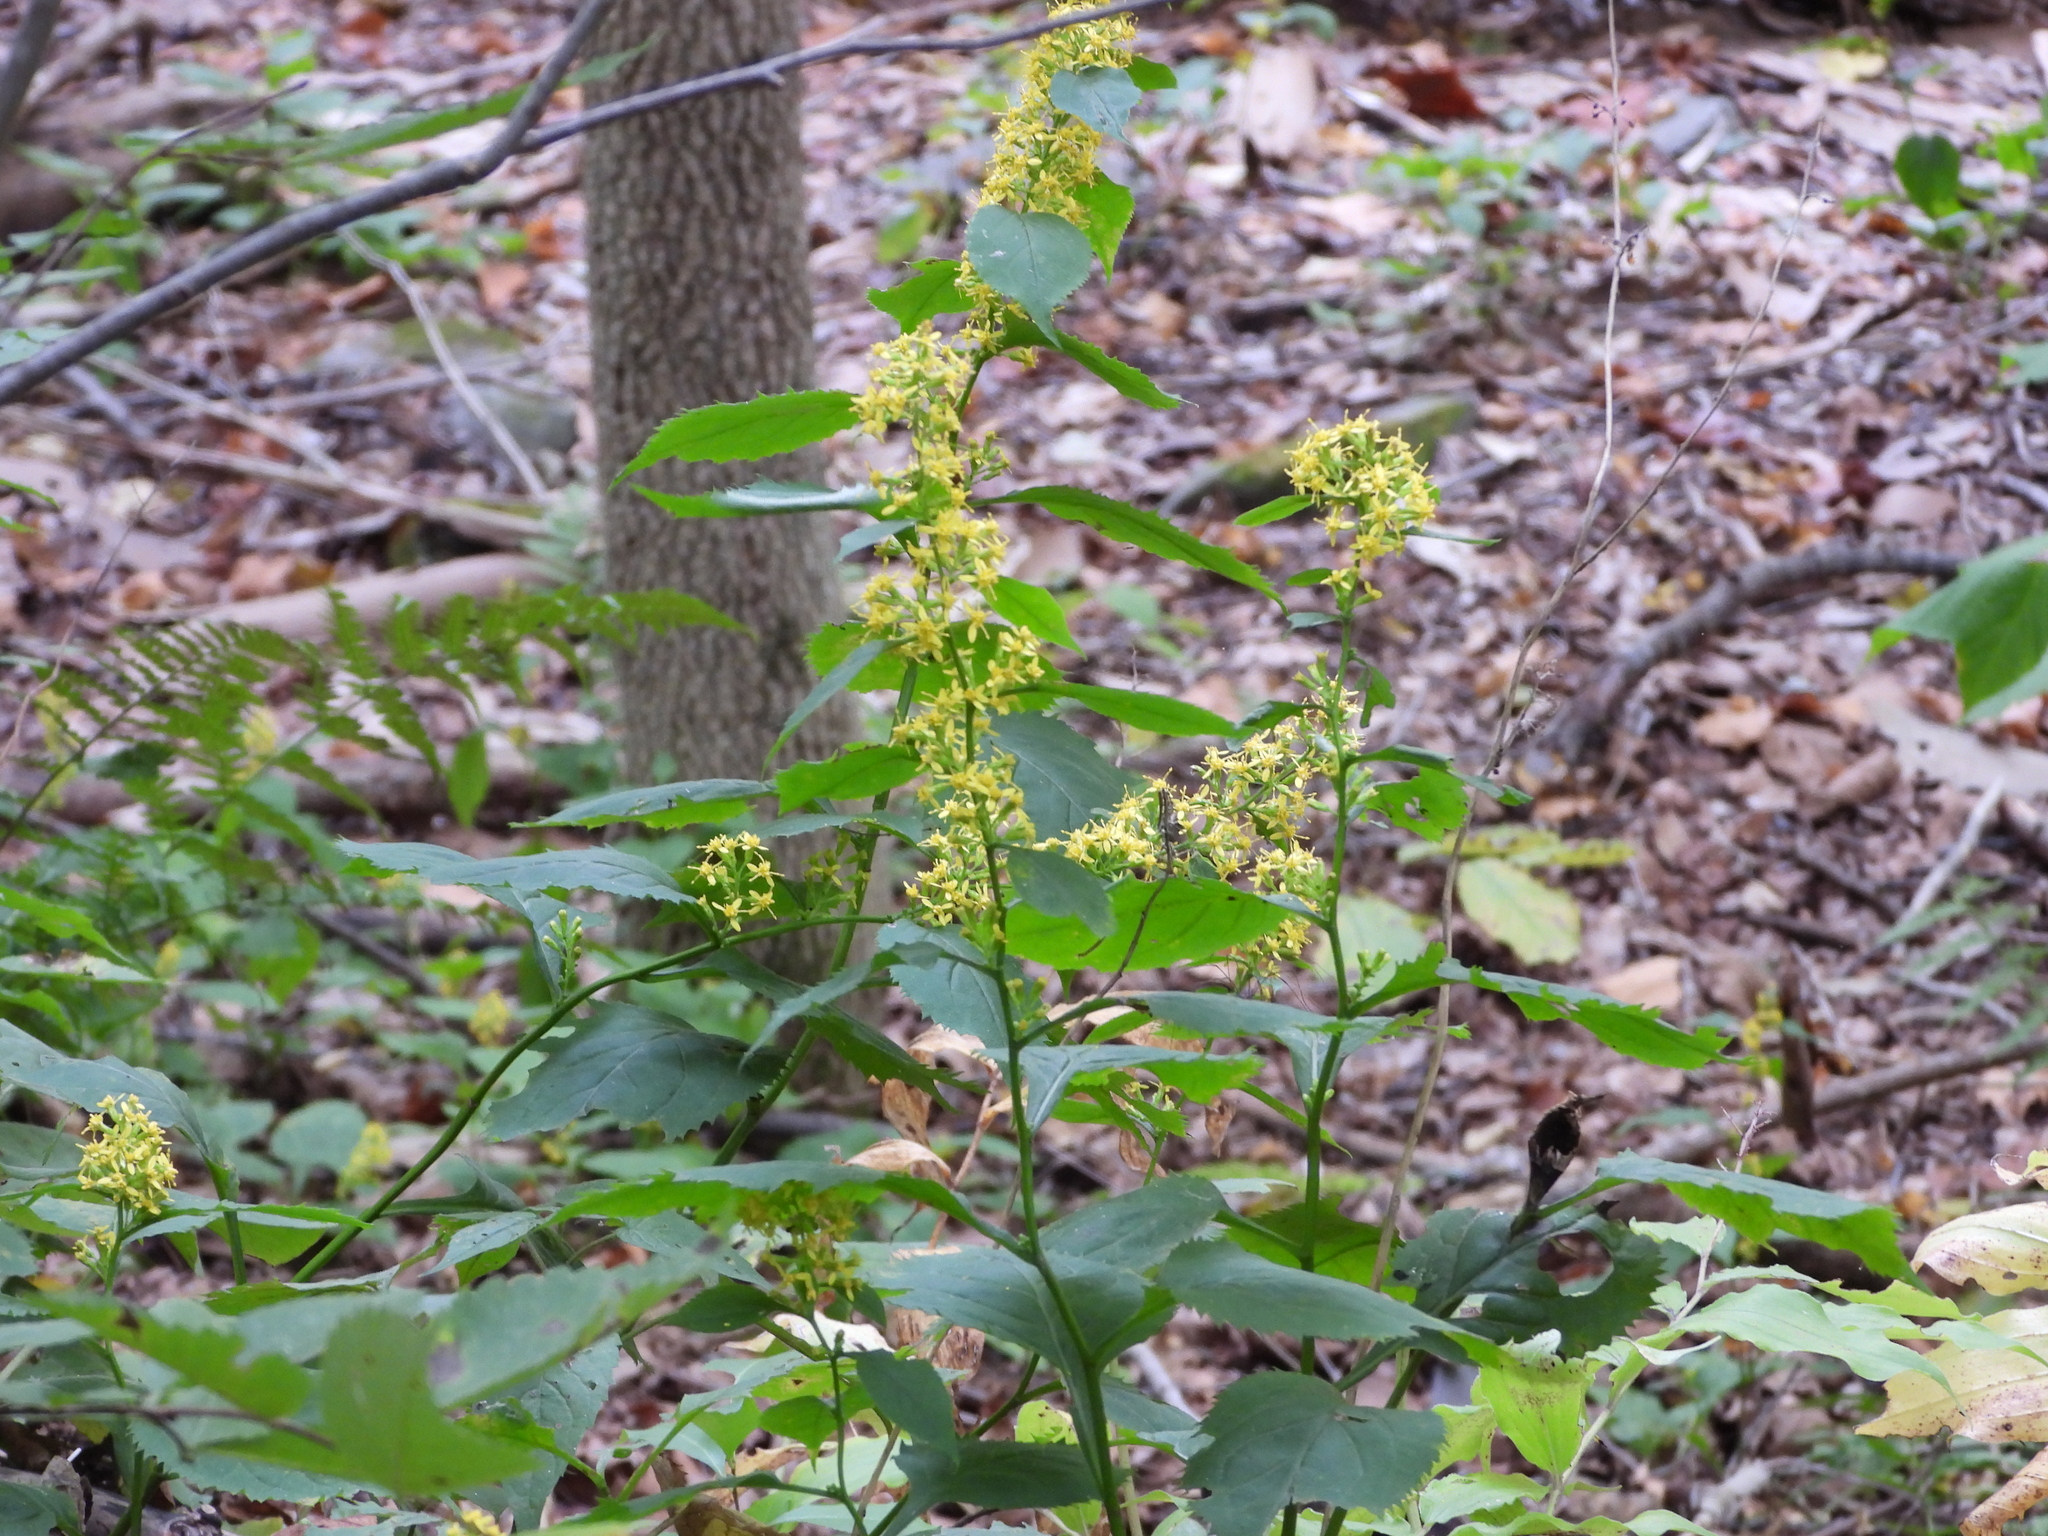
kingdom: Plantae
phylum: Tracheophyta
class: Magnoliopsida
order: Asterales
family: Asteraceae
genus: Solidago
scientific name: Solidago flexicaulis
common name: Zig-zag goldenrod
